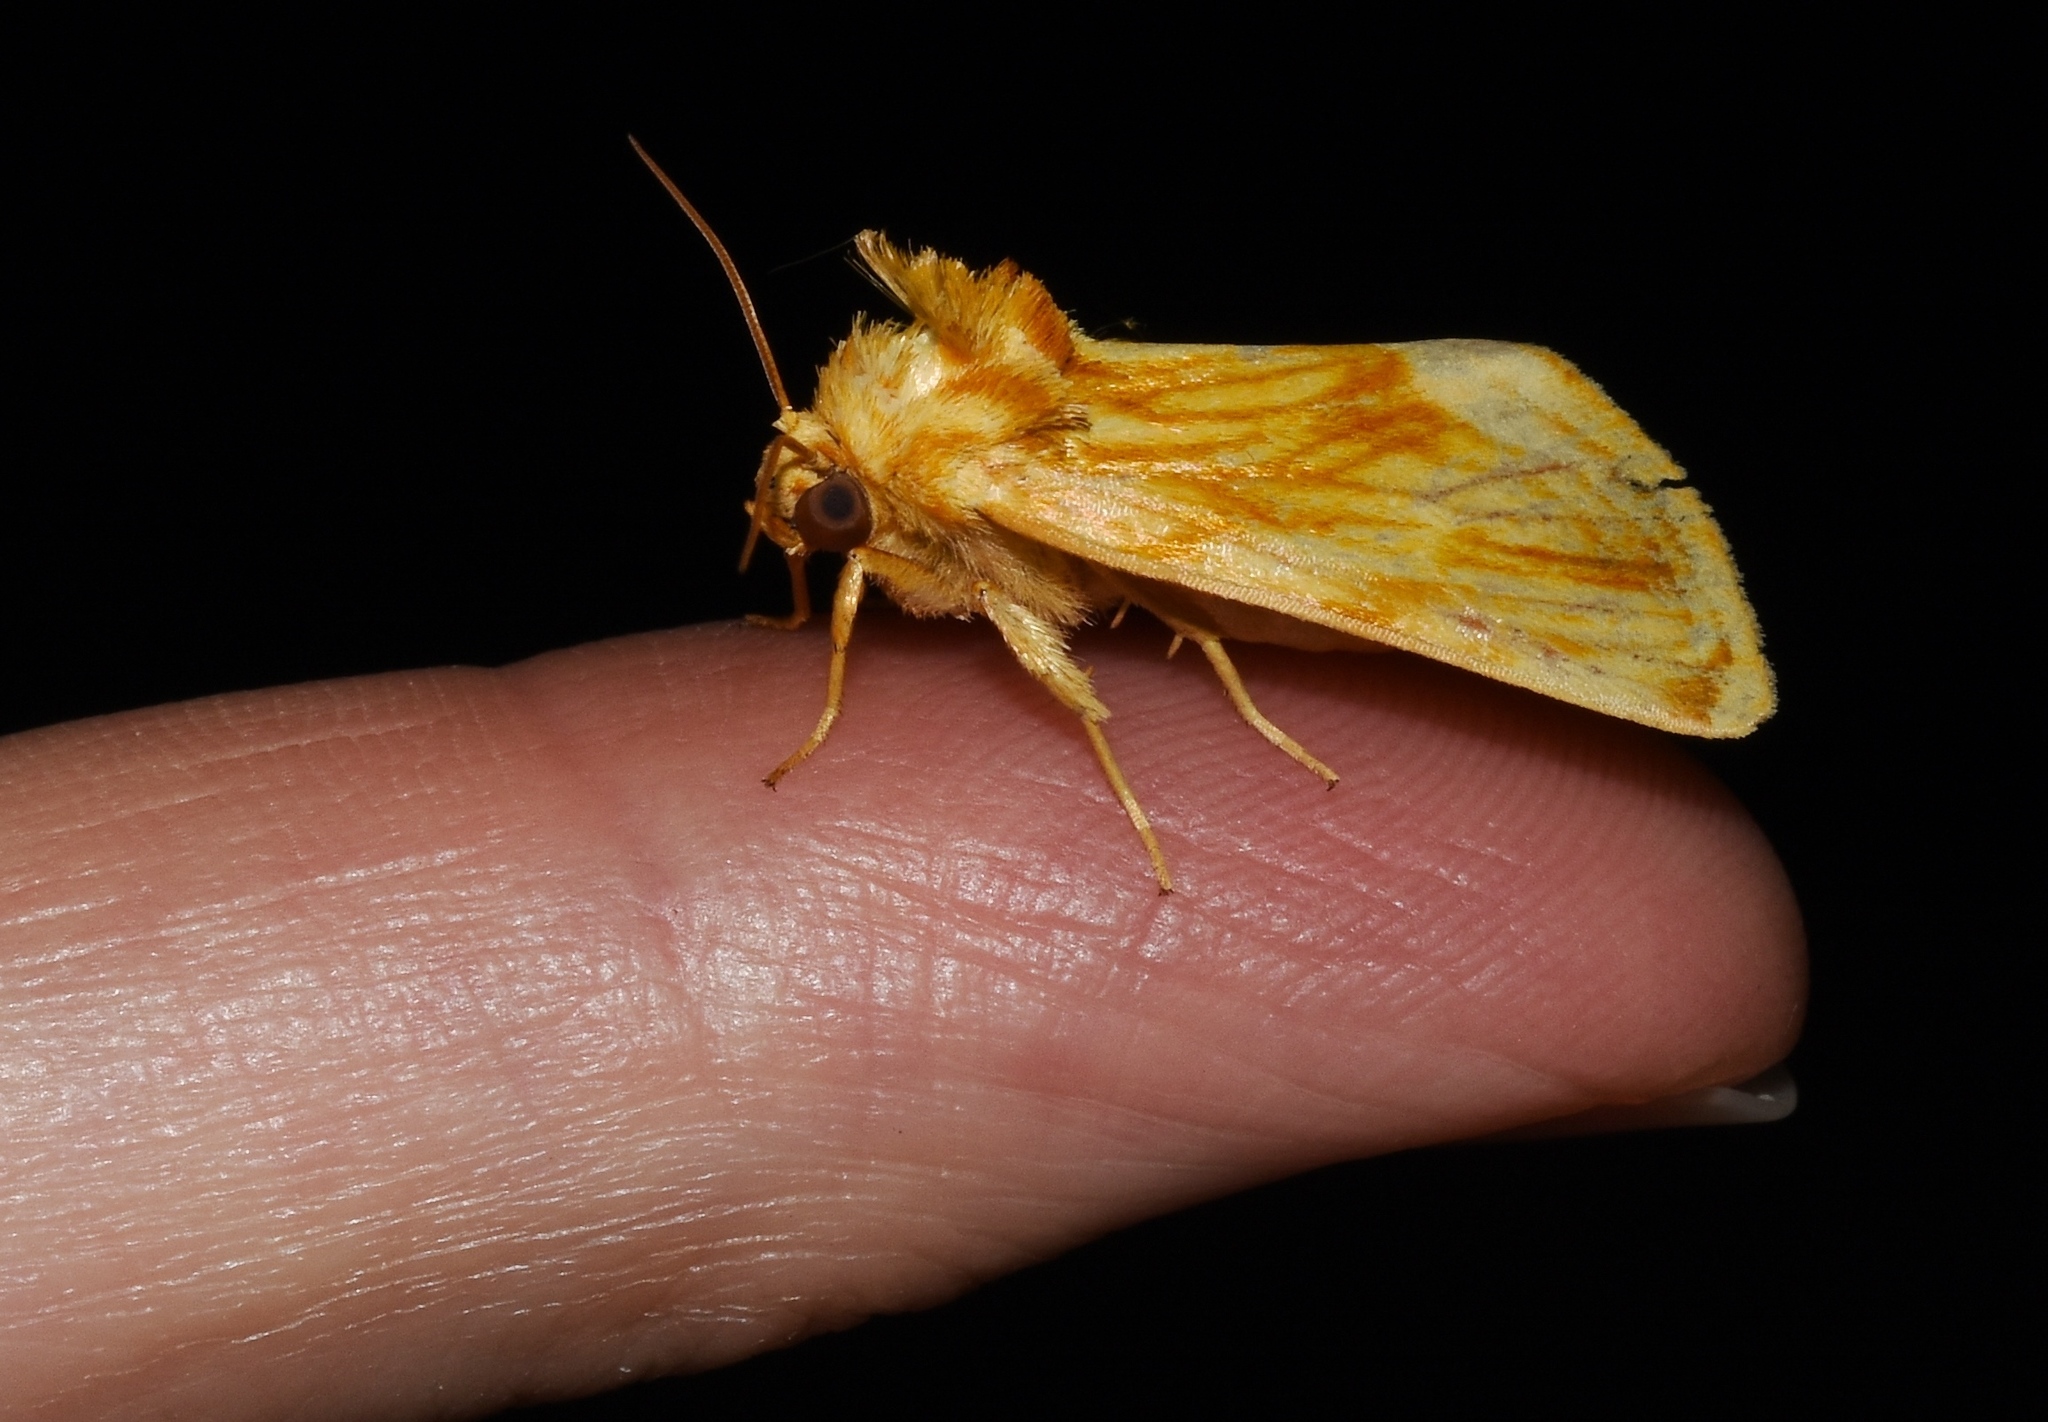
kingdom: Animalia
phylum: Arthropoda
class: Insecta
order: Lepidoptera
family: Noctuidae
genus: Cirrhophanus
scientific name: Cirrhophanus triangulifer
